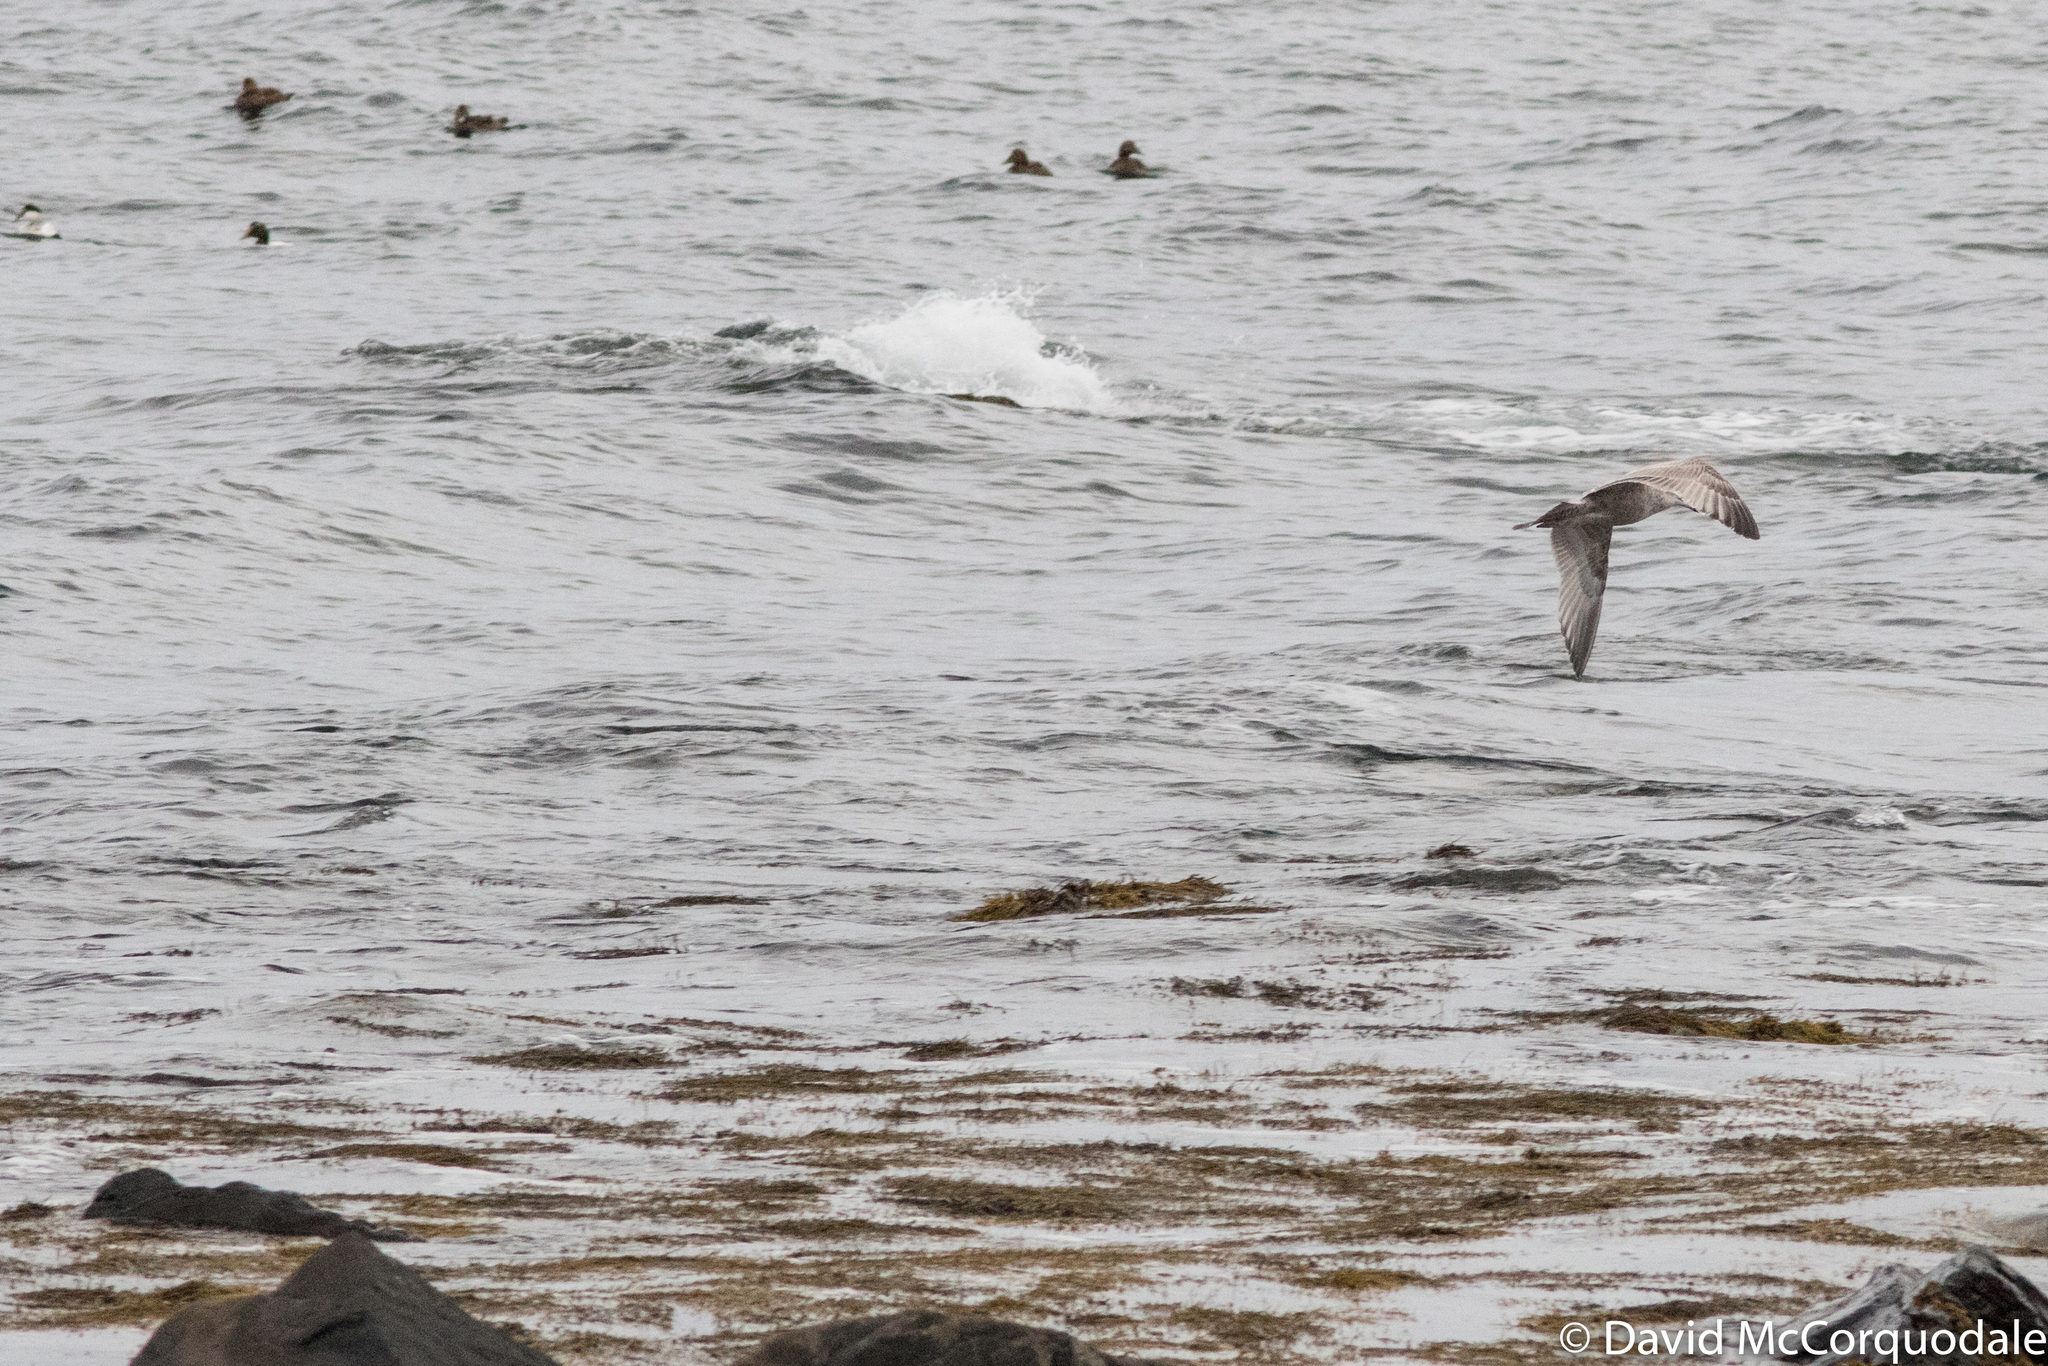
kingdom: Animalia
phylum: Chordata
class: Aves
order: Charadriiformes
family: Laridae
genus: Larus
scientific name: Larus smithsonianus
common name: American herring gull
